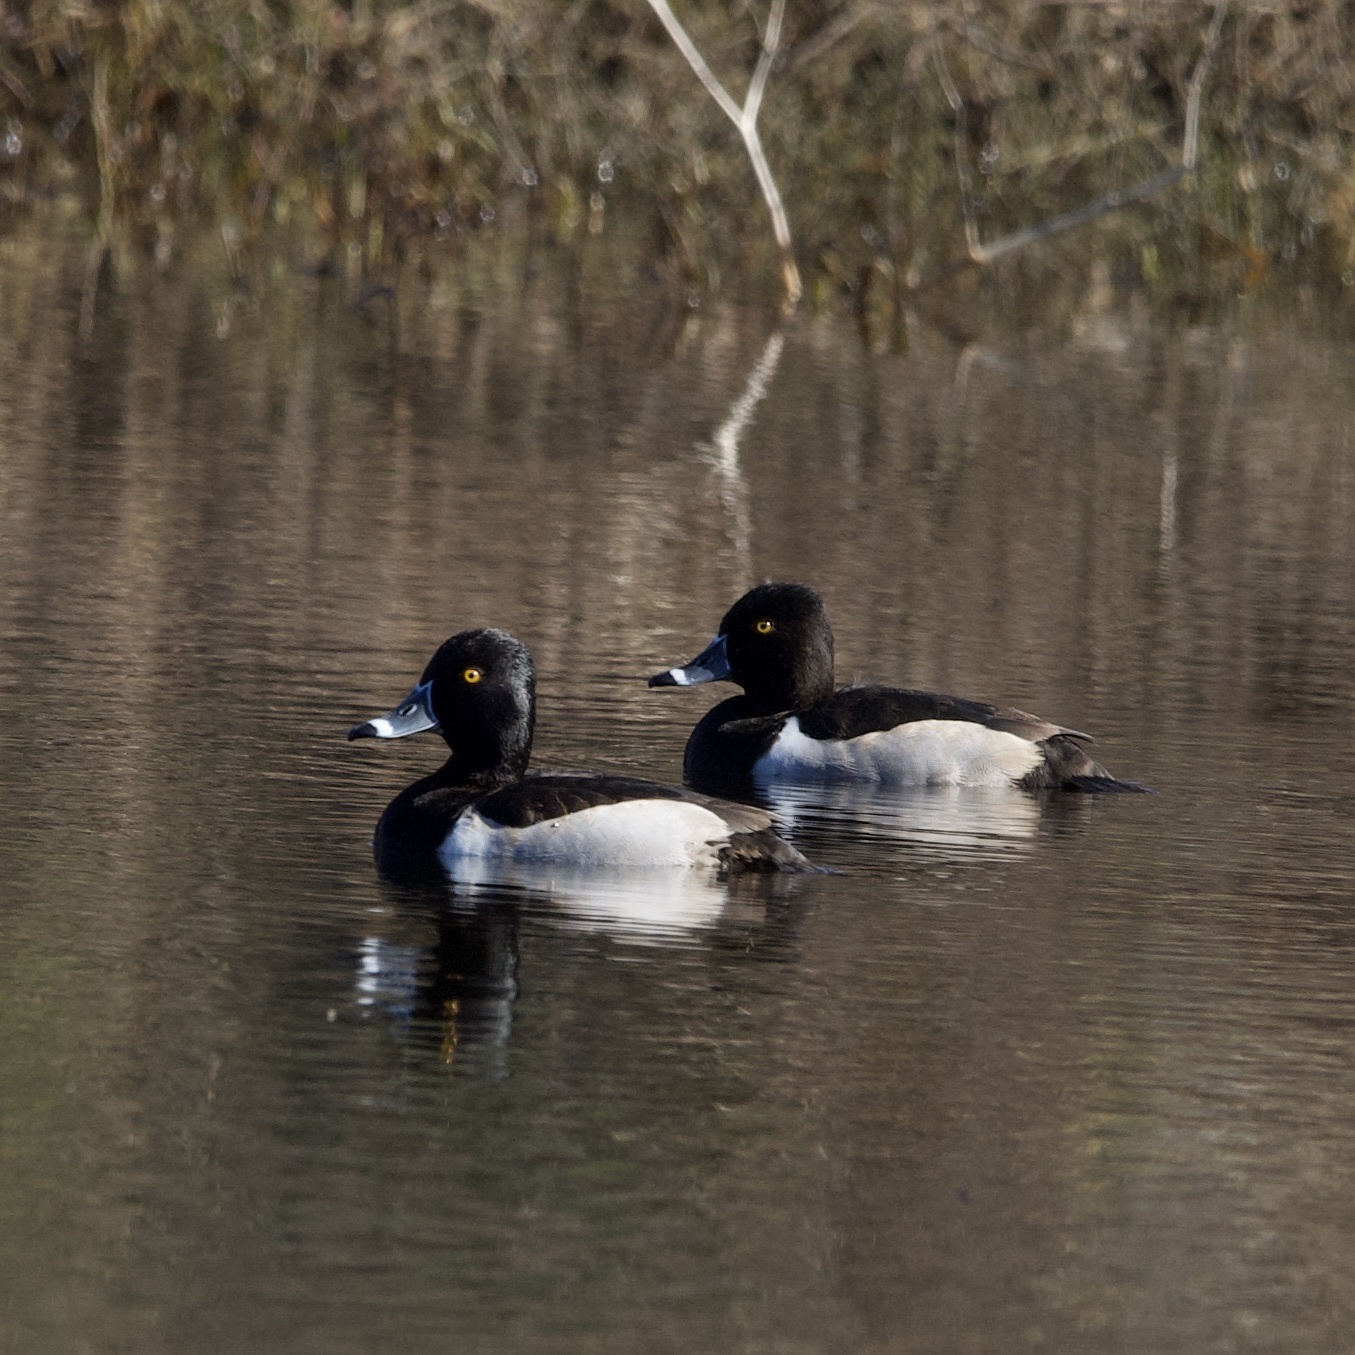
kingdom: Animalia
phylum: Chordata
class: Aves
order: Anseriformes
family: Anatidae
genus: Aythya
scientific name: Aythya collaris
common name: Ring-necked duck
